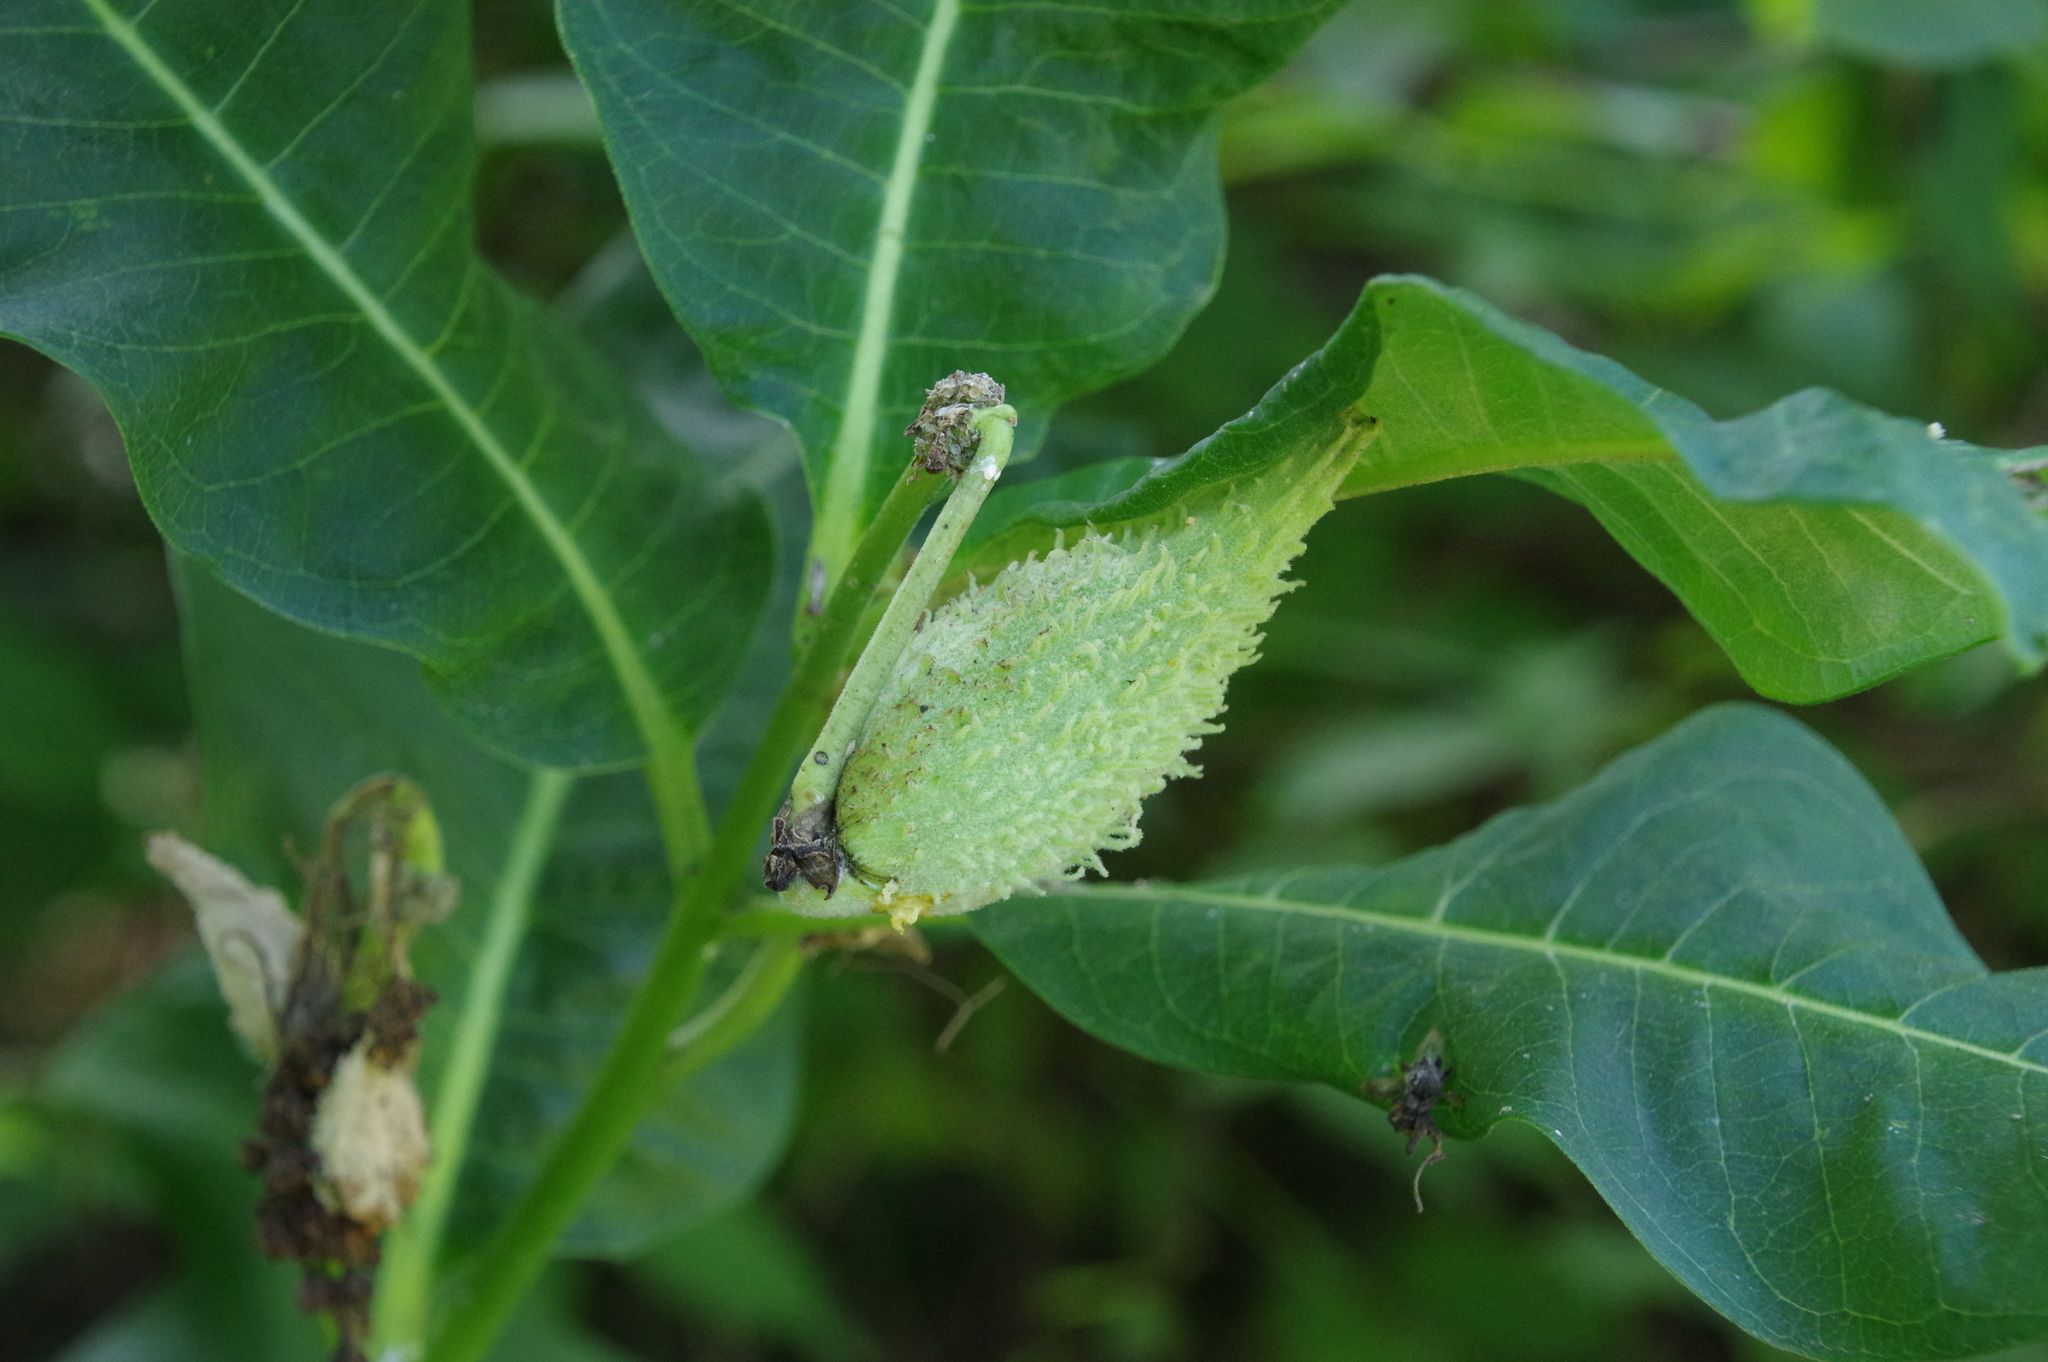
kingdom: Plantae
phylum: Tracheophyta
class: Magnoliopsida
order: Gentianales
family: Apocynaceae
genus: Asclepias
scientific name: Asclepias syriaca
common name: Common milkweed
